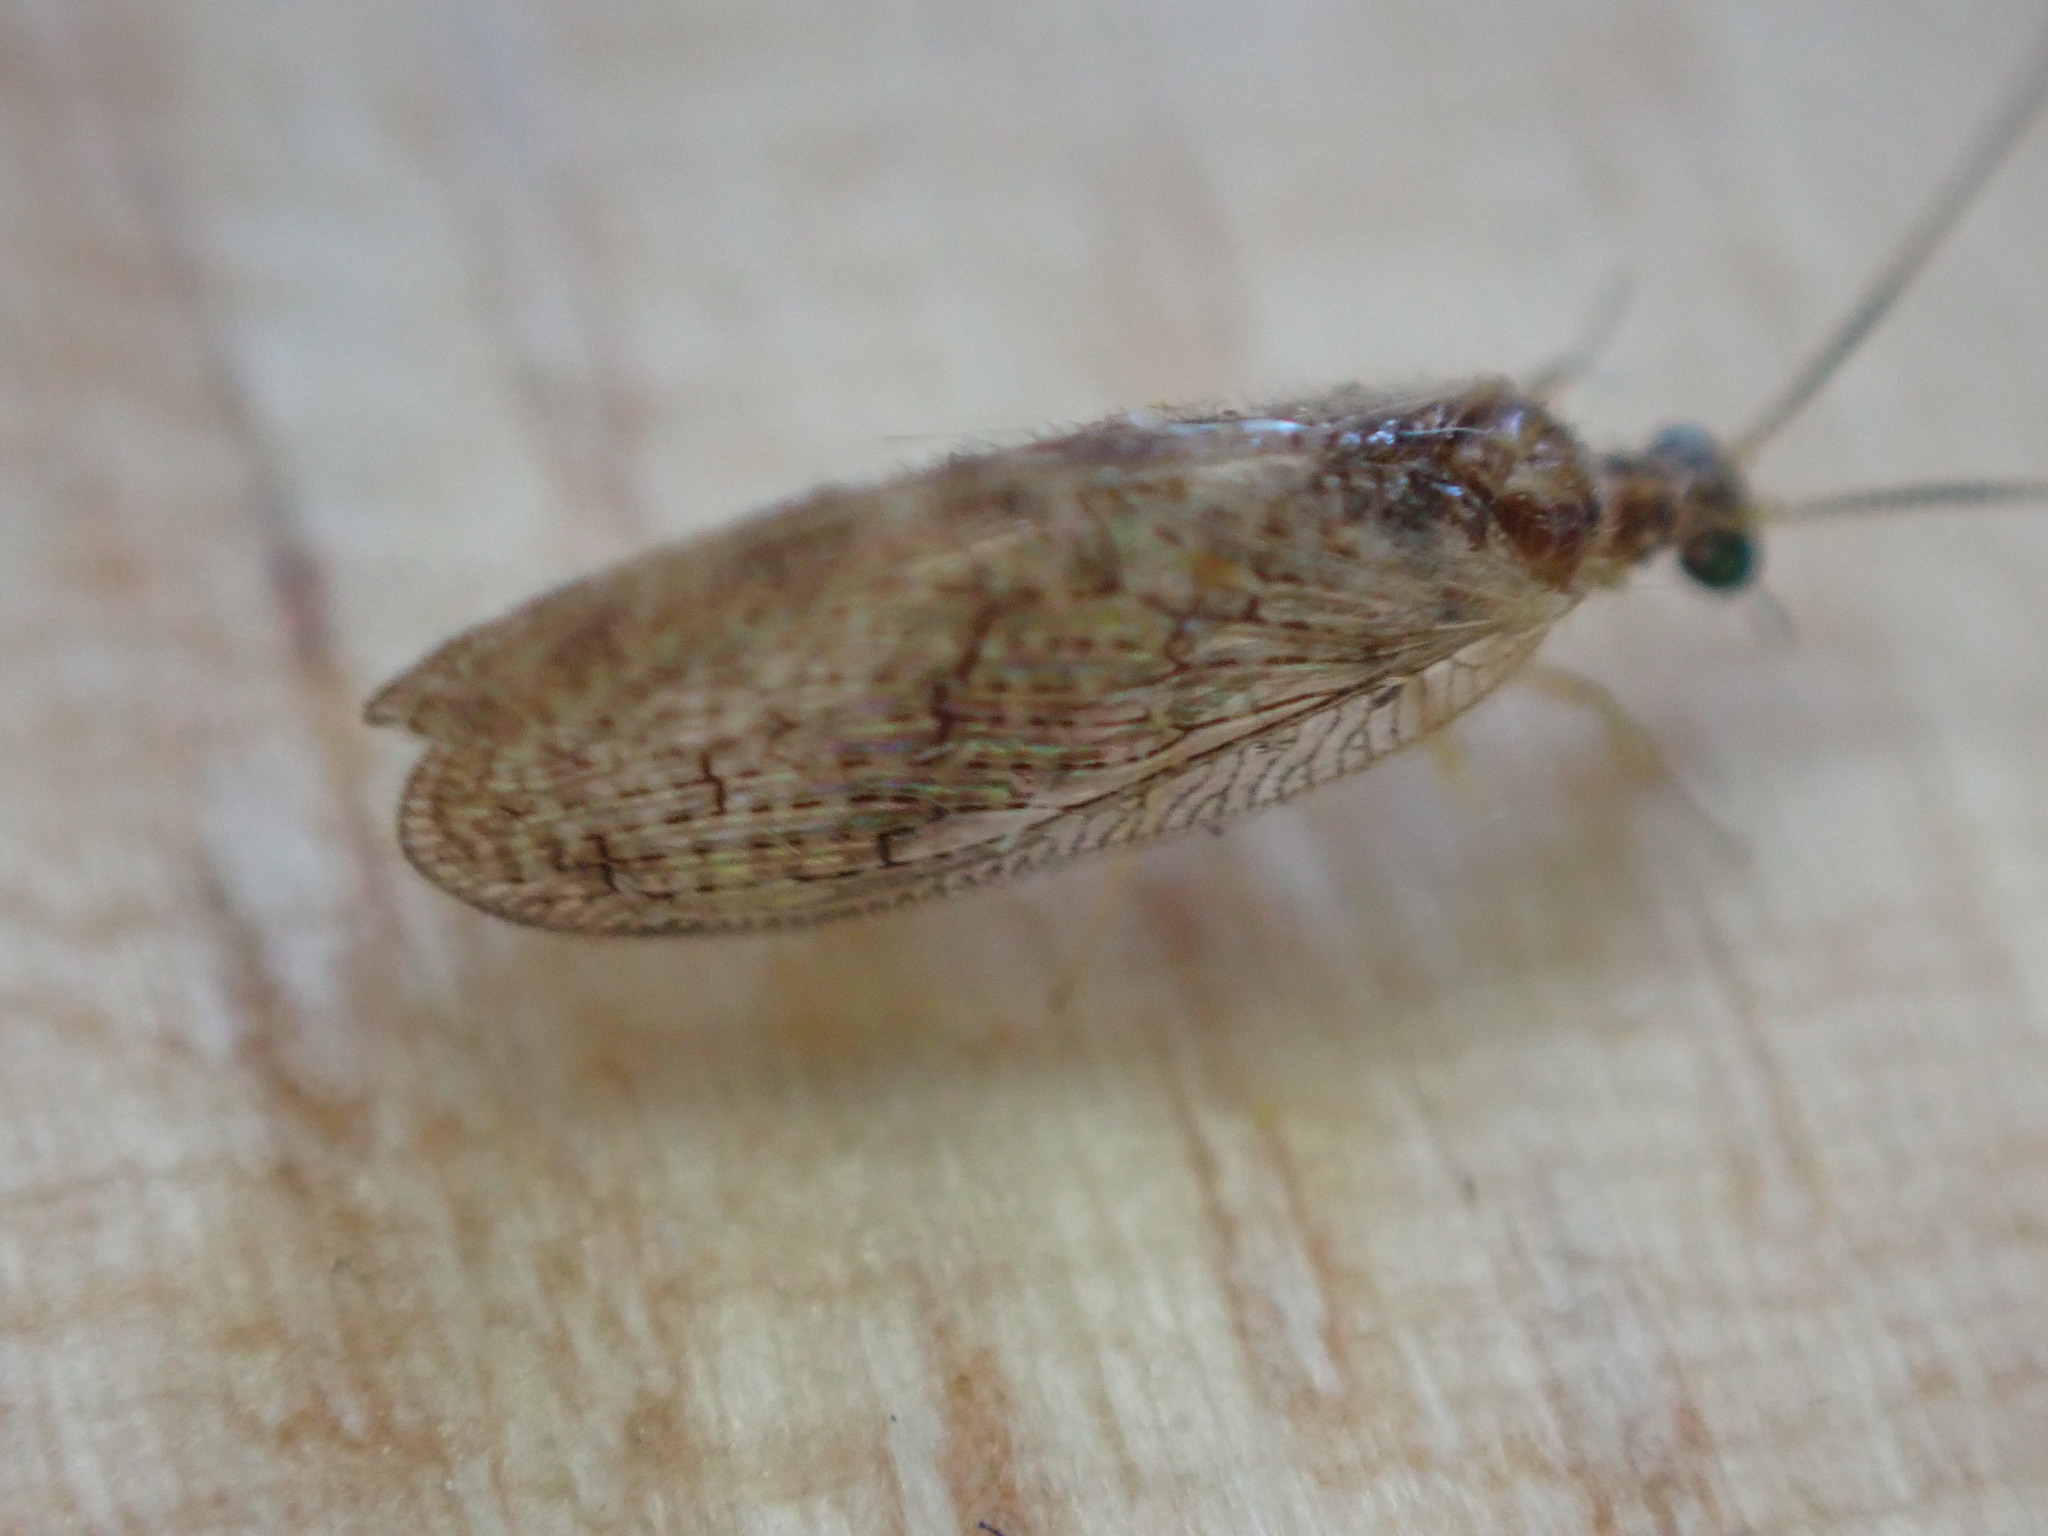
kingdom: Animalia
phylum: Arthropoda
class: Insecta
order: Neuroptera
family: Hemerobiidae
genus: Sympherobius
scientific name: Sympherobius pygmaeus
